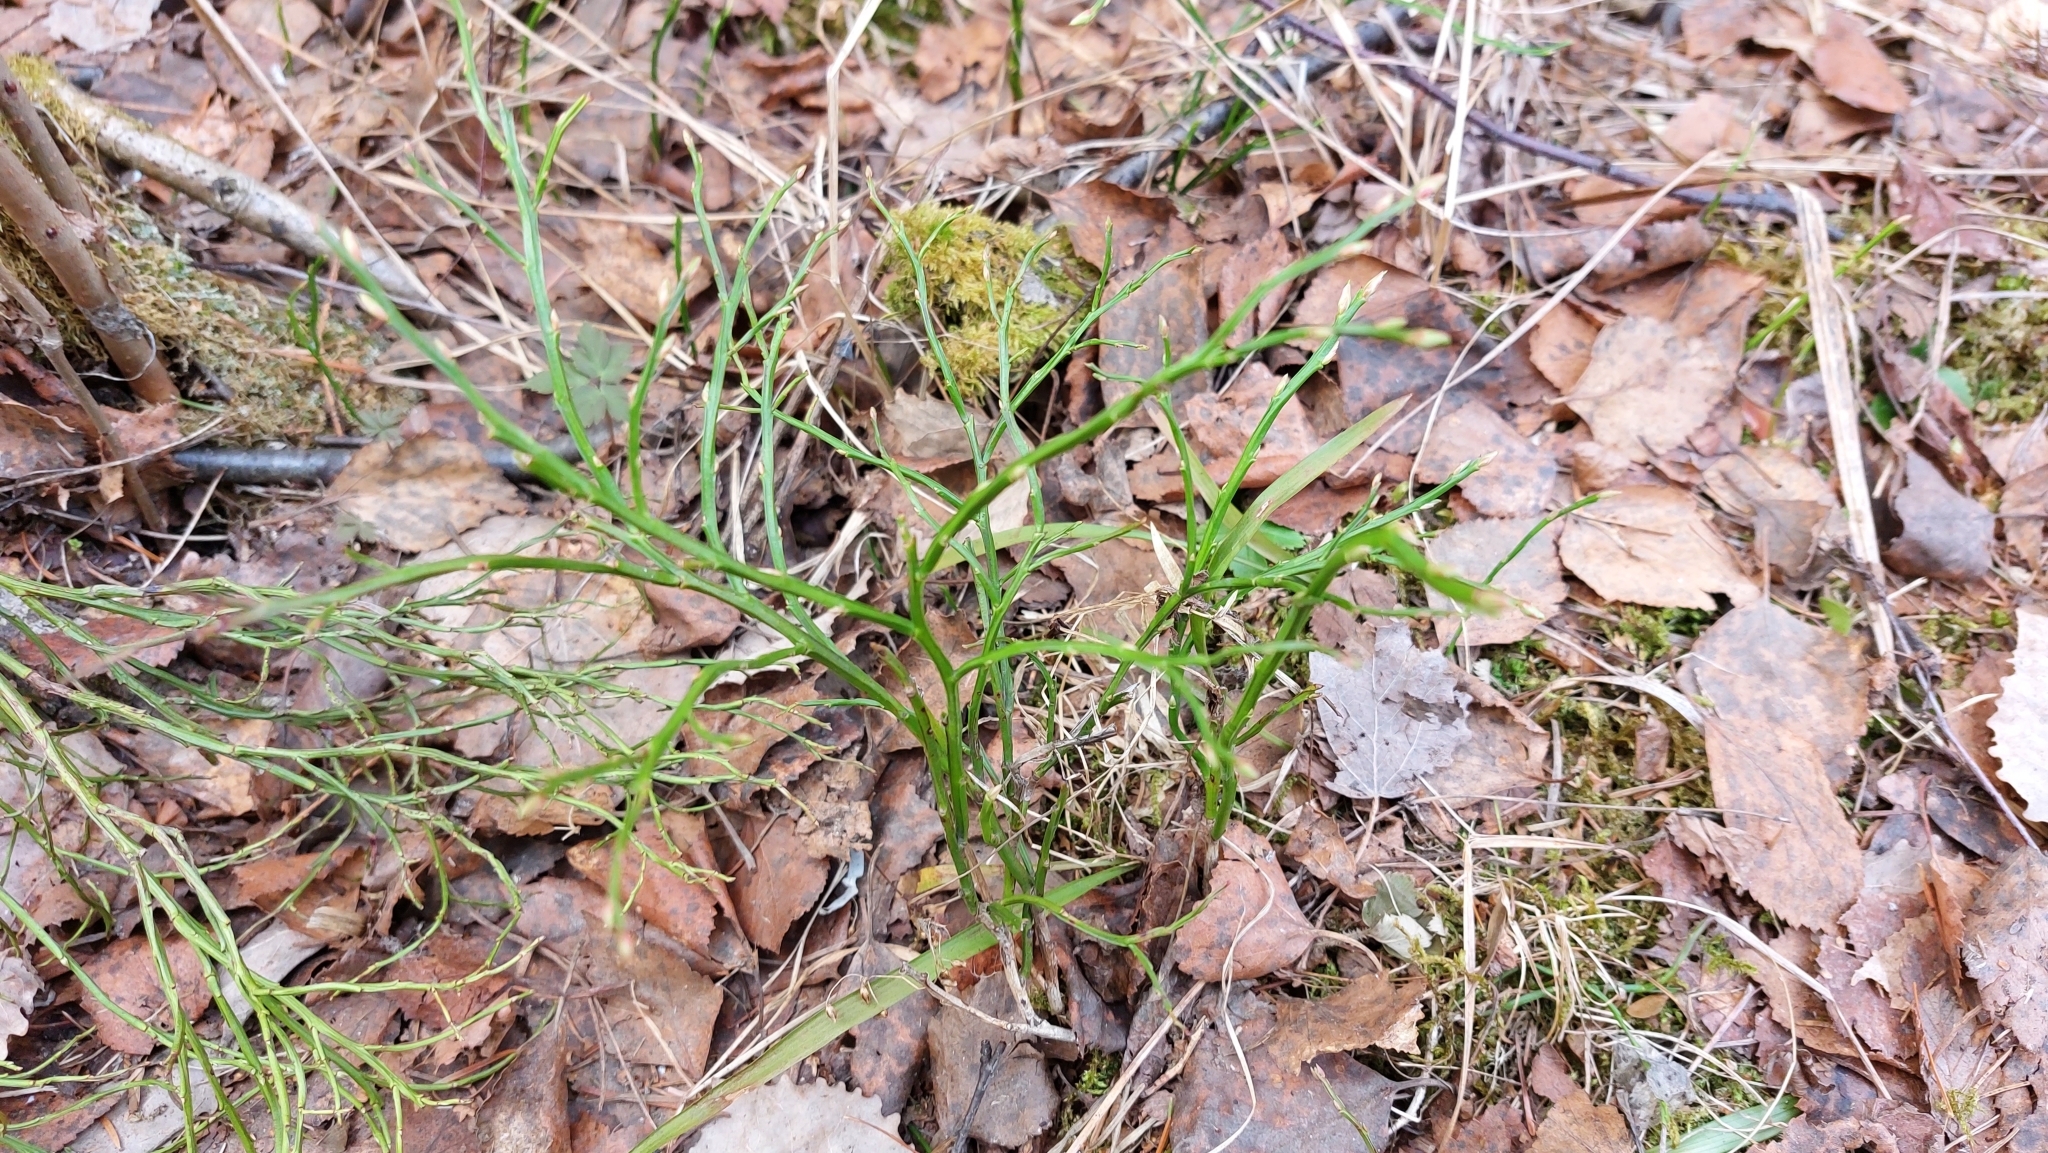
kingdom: Plantae
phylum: Tracheophyta
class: Magnoliopsida
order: Ericales
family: Ericaceae
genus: Vaccinium
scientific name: Vaccinium myrtillus
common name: Bilberry
